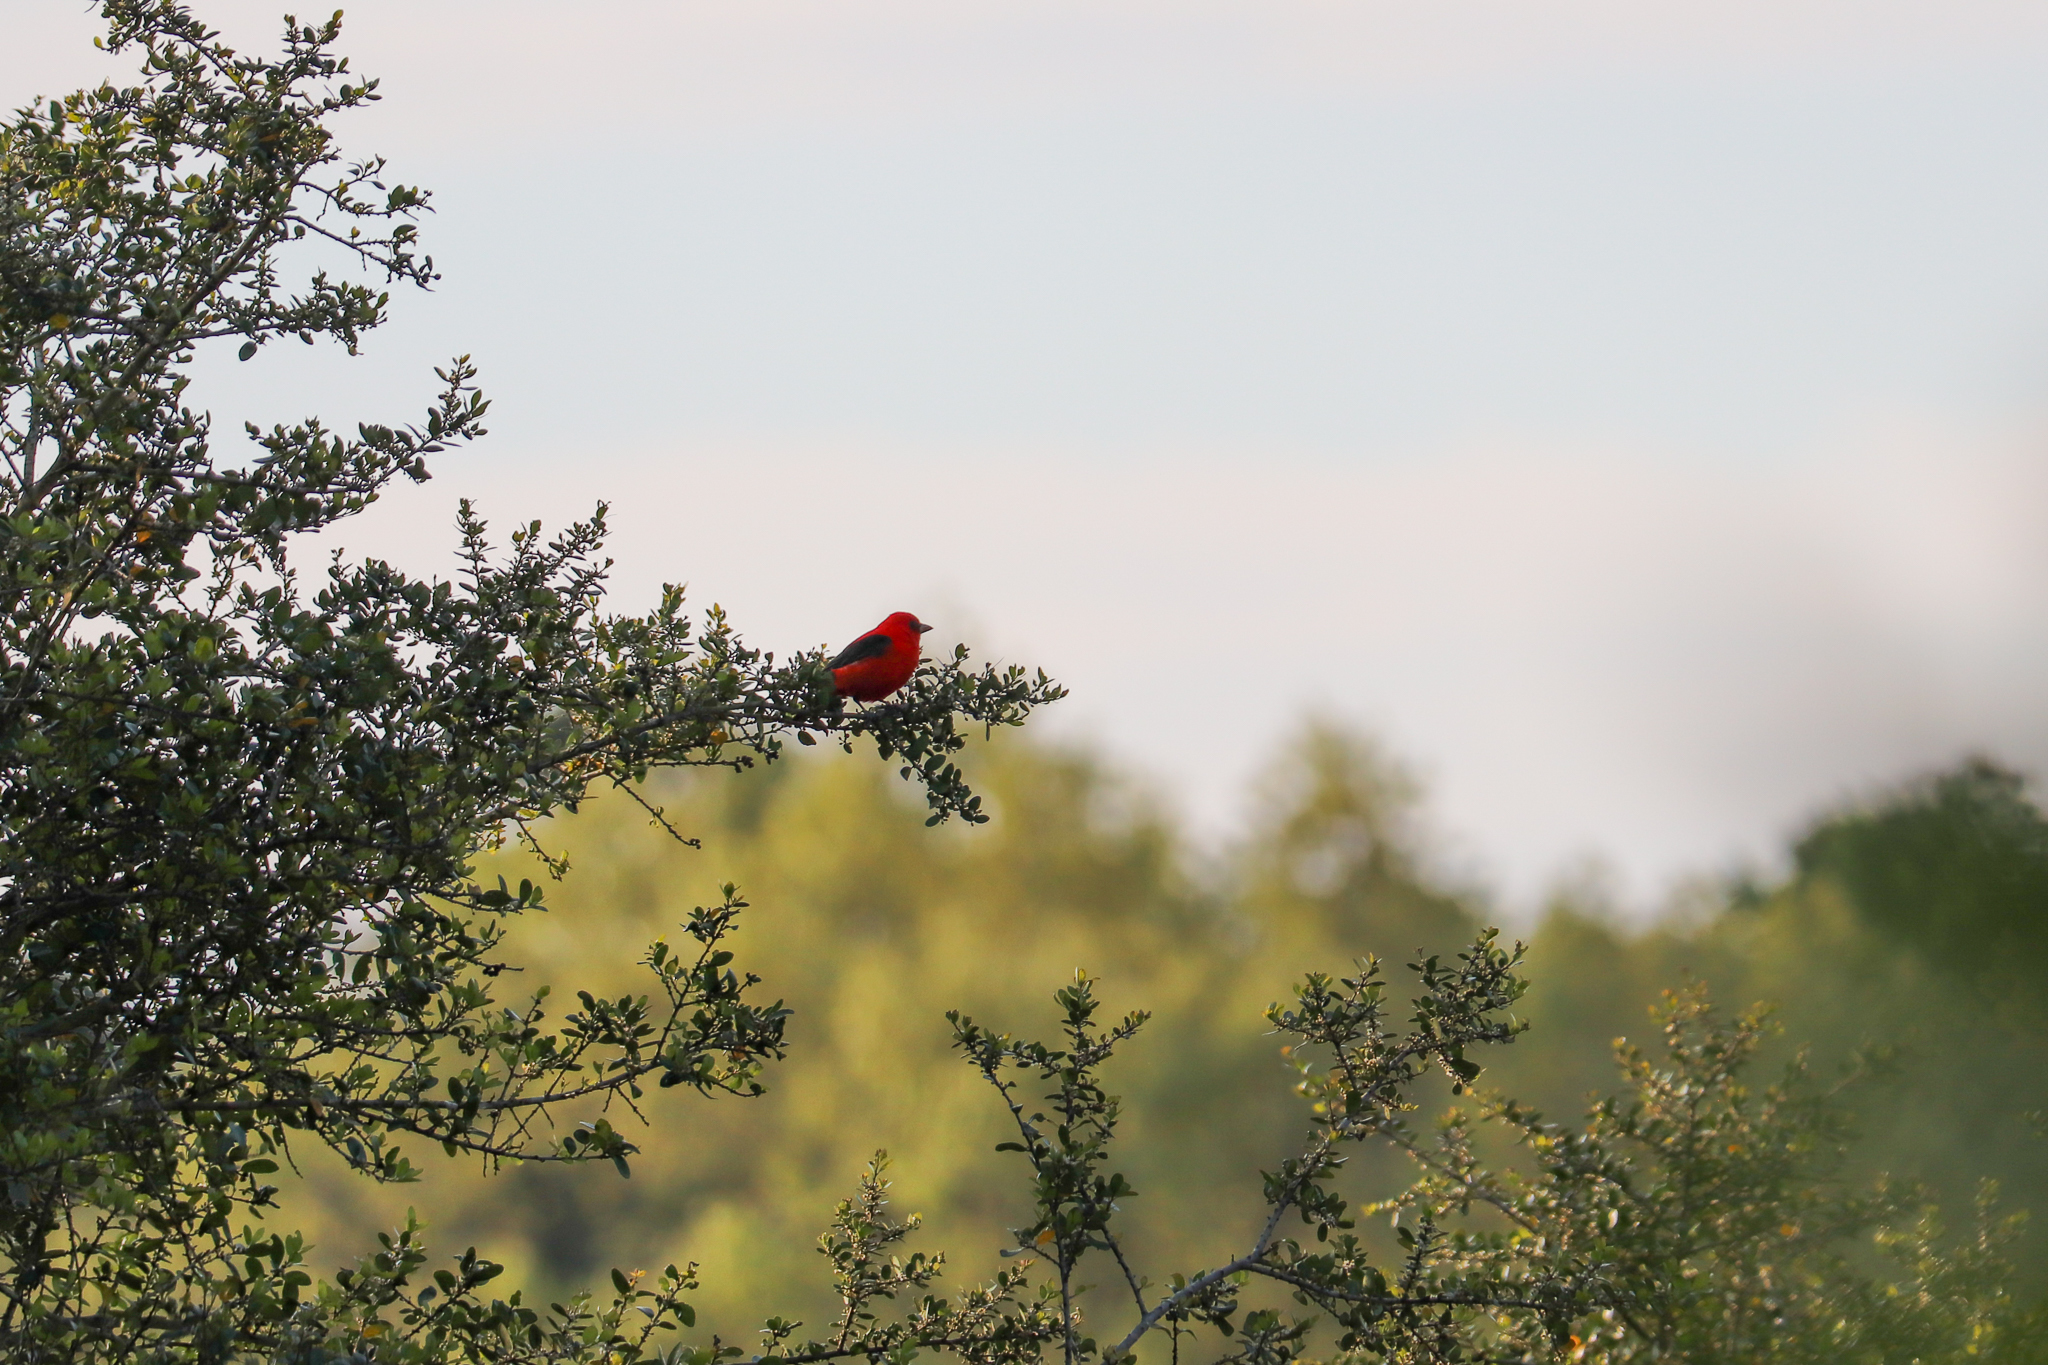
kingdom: Animalia
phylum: Chordata
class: Aves
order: Passeriformes
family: Cardinalidae
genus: Piranga
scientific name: Piranga olivacea
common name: Scarlet tanager
